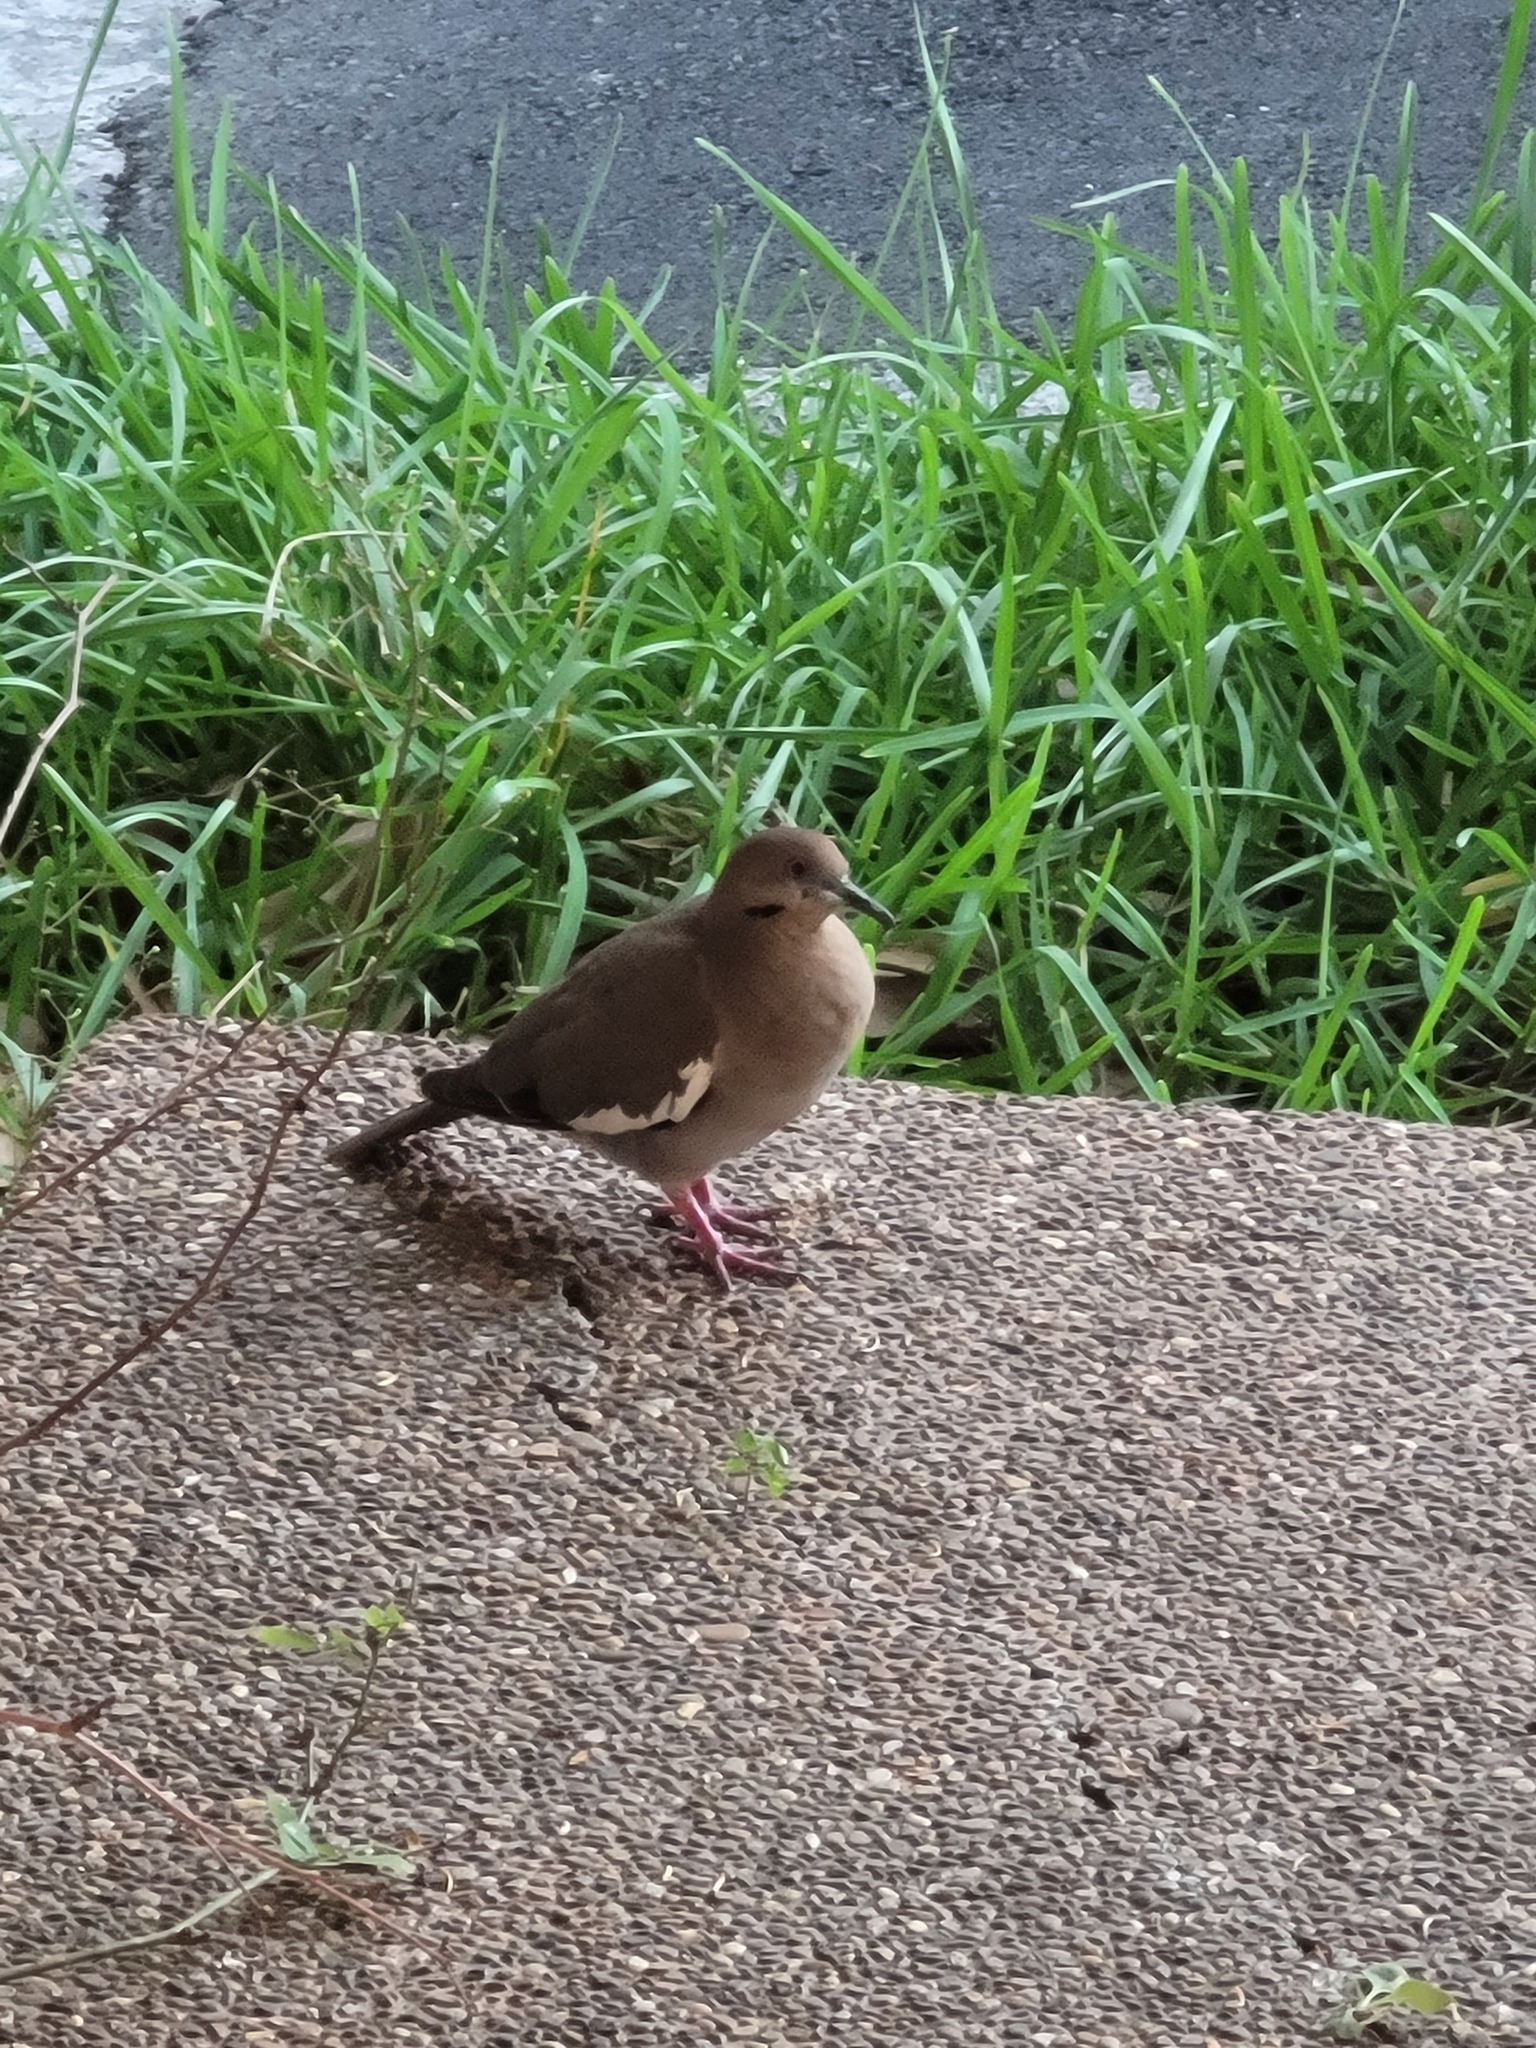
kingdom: Animalia
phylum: Chordata
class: Aves
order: Columbiformes
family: Columbidae
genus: Zenaida
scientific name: Zenaida asiatica
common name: White-winged dove
